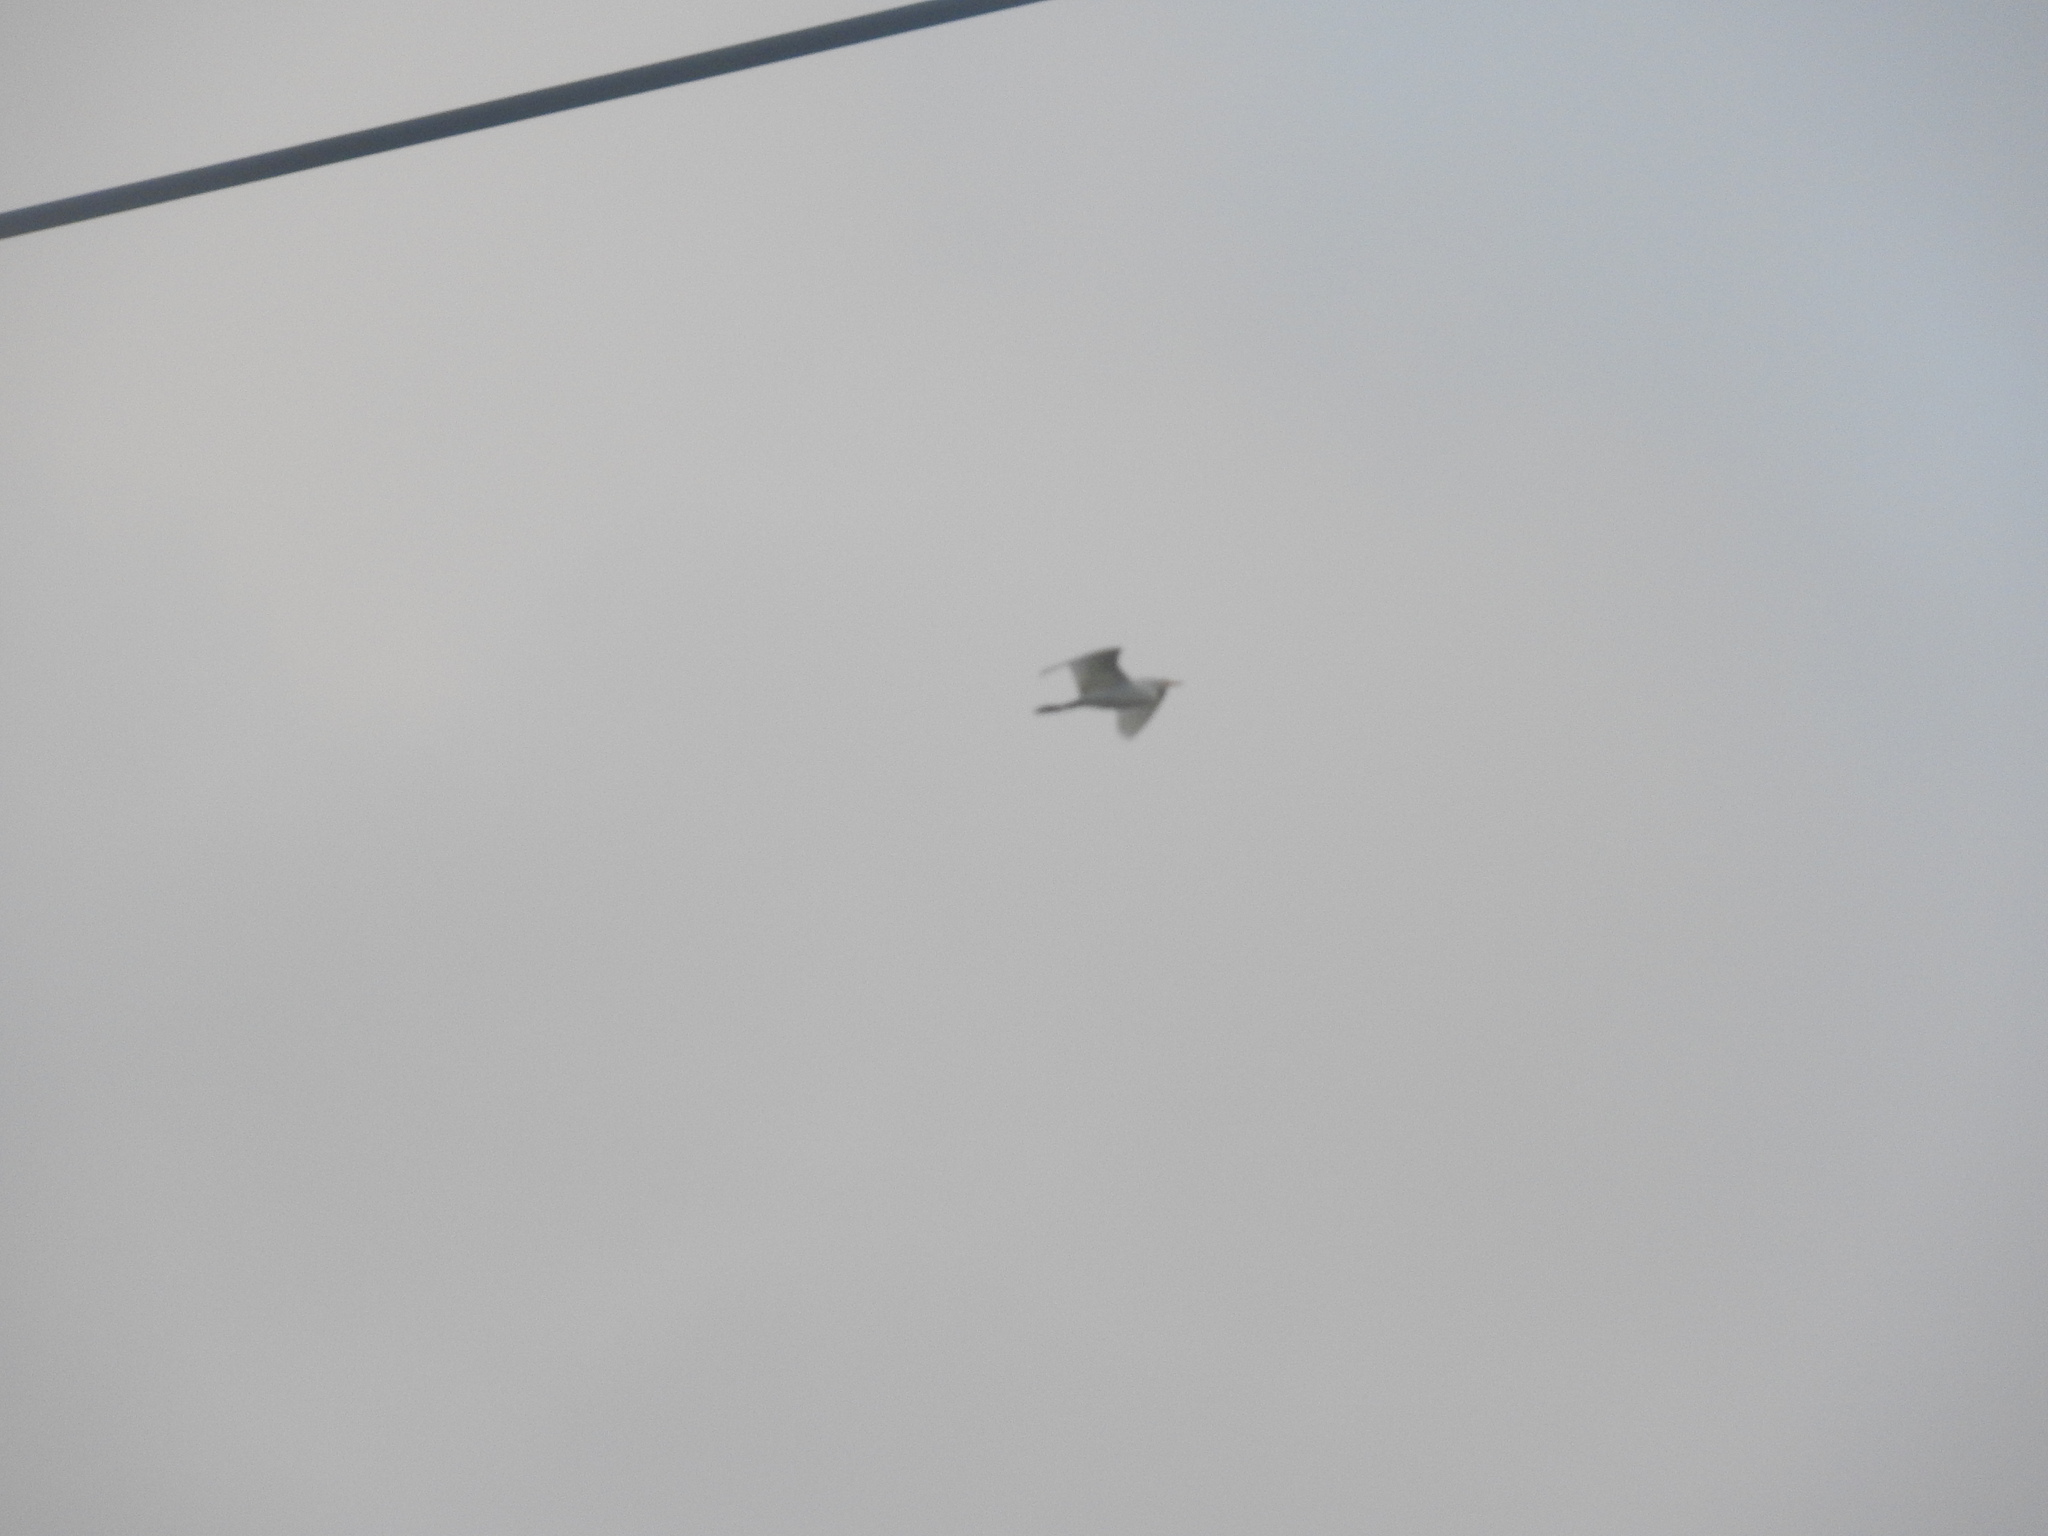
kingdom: Animalia
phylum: Chordata
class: Aves
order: Pelecaniformes
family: Ardeidae
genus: Bubulcus
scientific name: Bubulcus ibis
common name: Cattle egret
